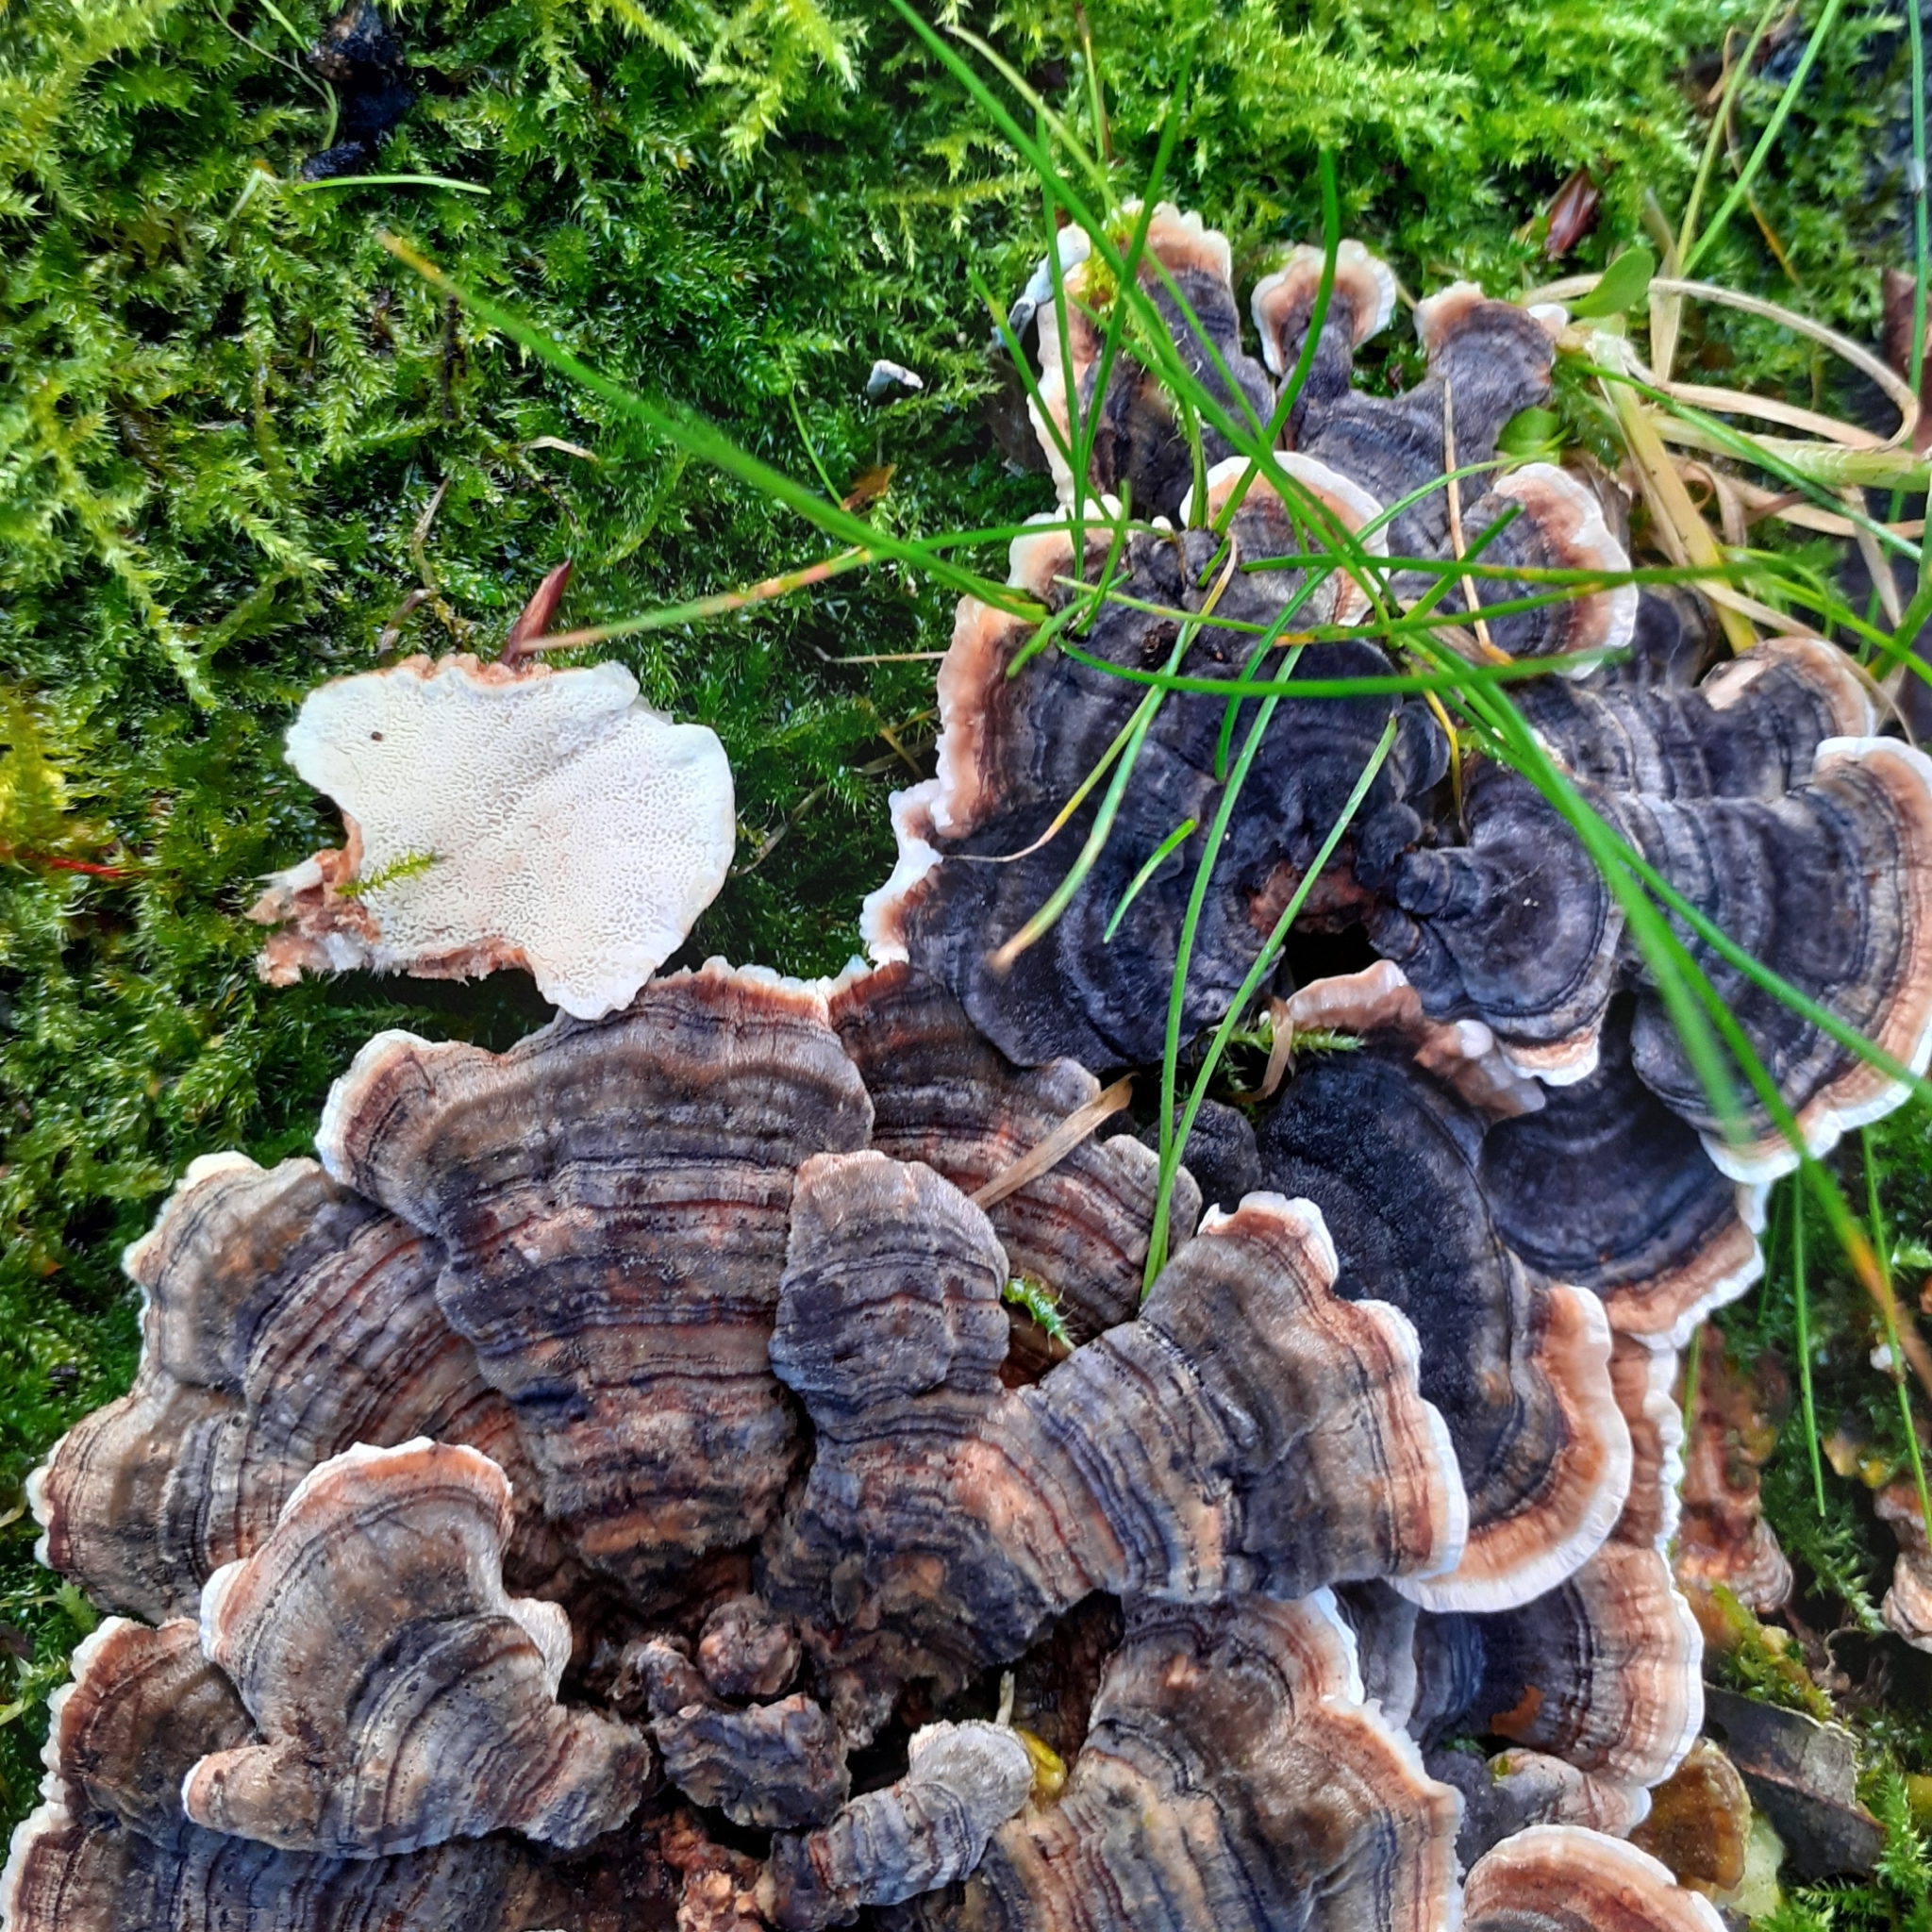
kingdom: Fungi
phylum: Basidiomycota
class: Agaricomycetes
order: Polyporales
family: Polyporaceae
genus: Trametes
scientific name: Trametes versicolor
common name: Turkeytail
